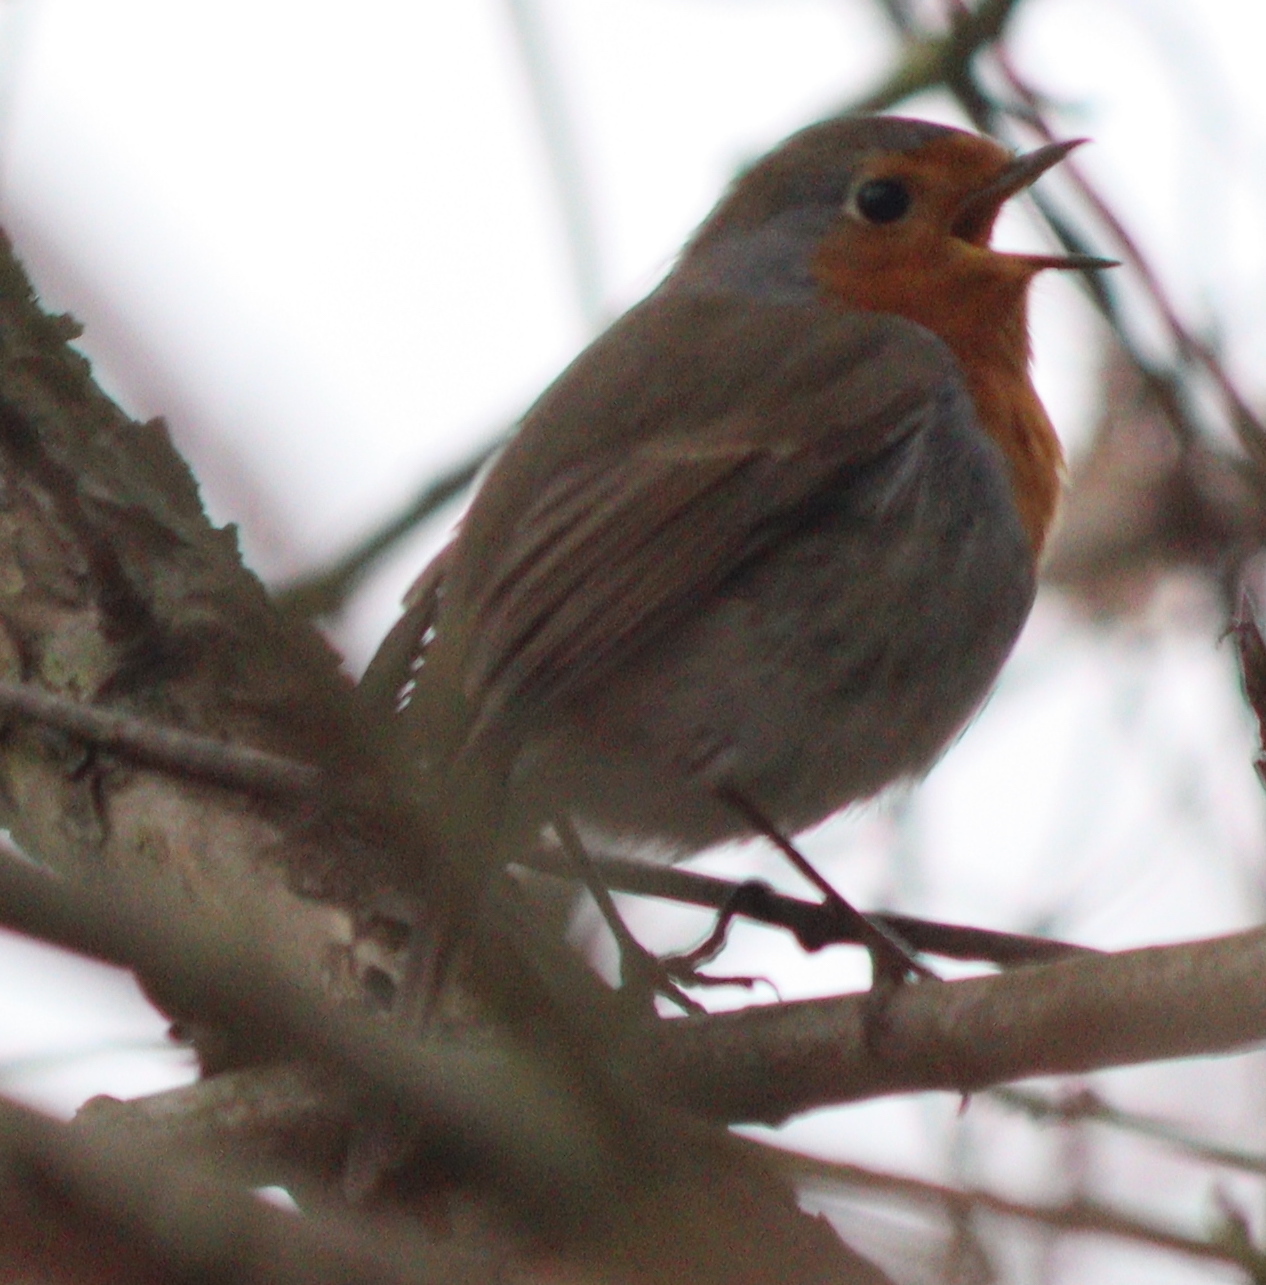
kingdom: Animalia
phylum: Chordata
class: Aves
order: Passeriformes
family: Muscicapidae
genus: Erithacus
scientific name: Erithacus rubecula
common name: European robin
